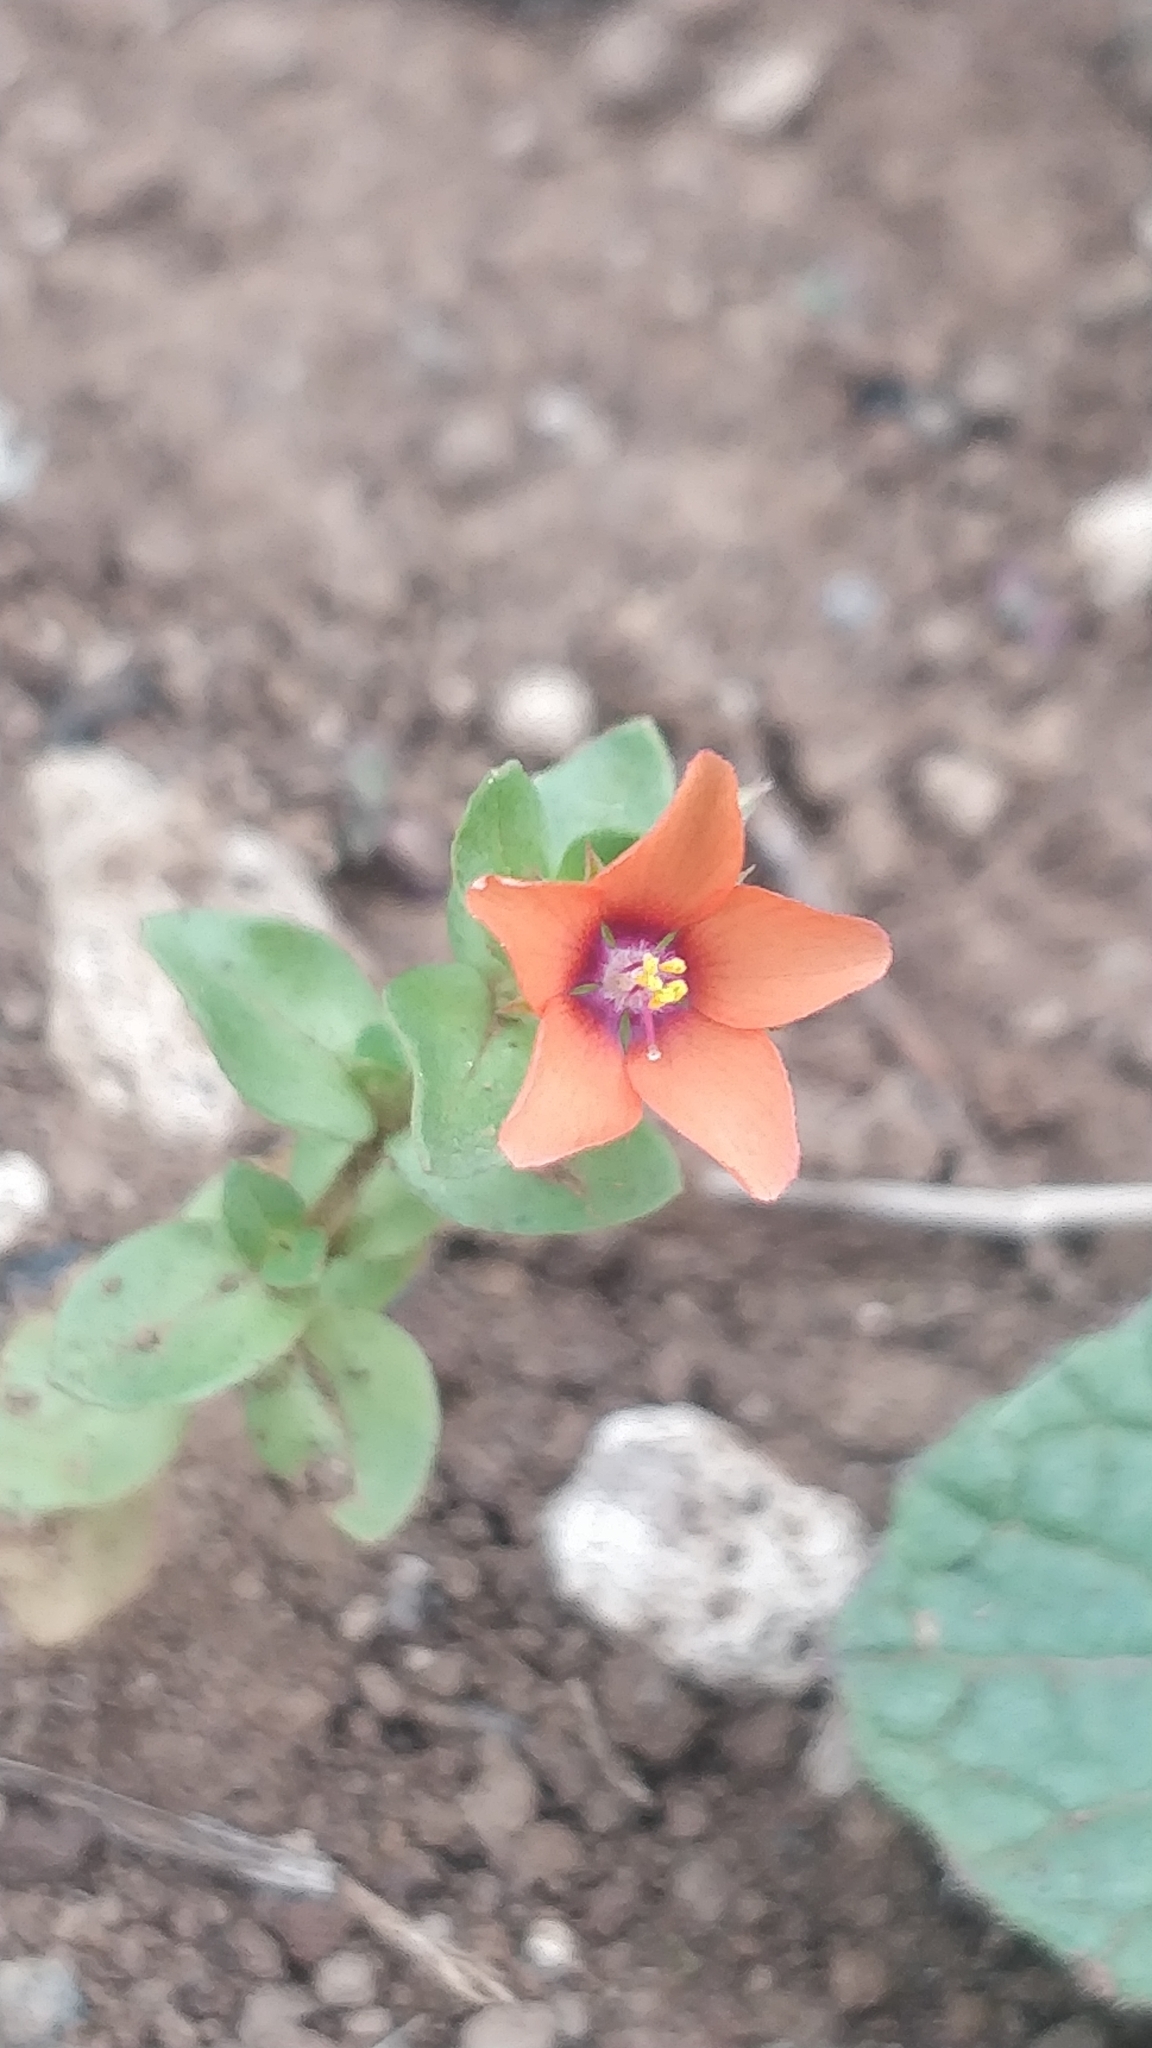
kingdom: Plantae
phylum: Tracheophyta
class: Magnoliopsida
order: Ericales
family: Primulaceae
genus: Lysimachia
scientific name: Lysimachia arvensis
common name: Scarlet pimpernel
